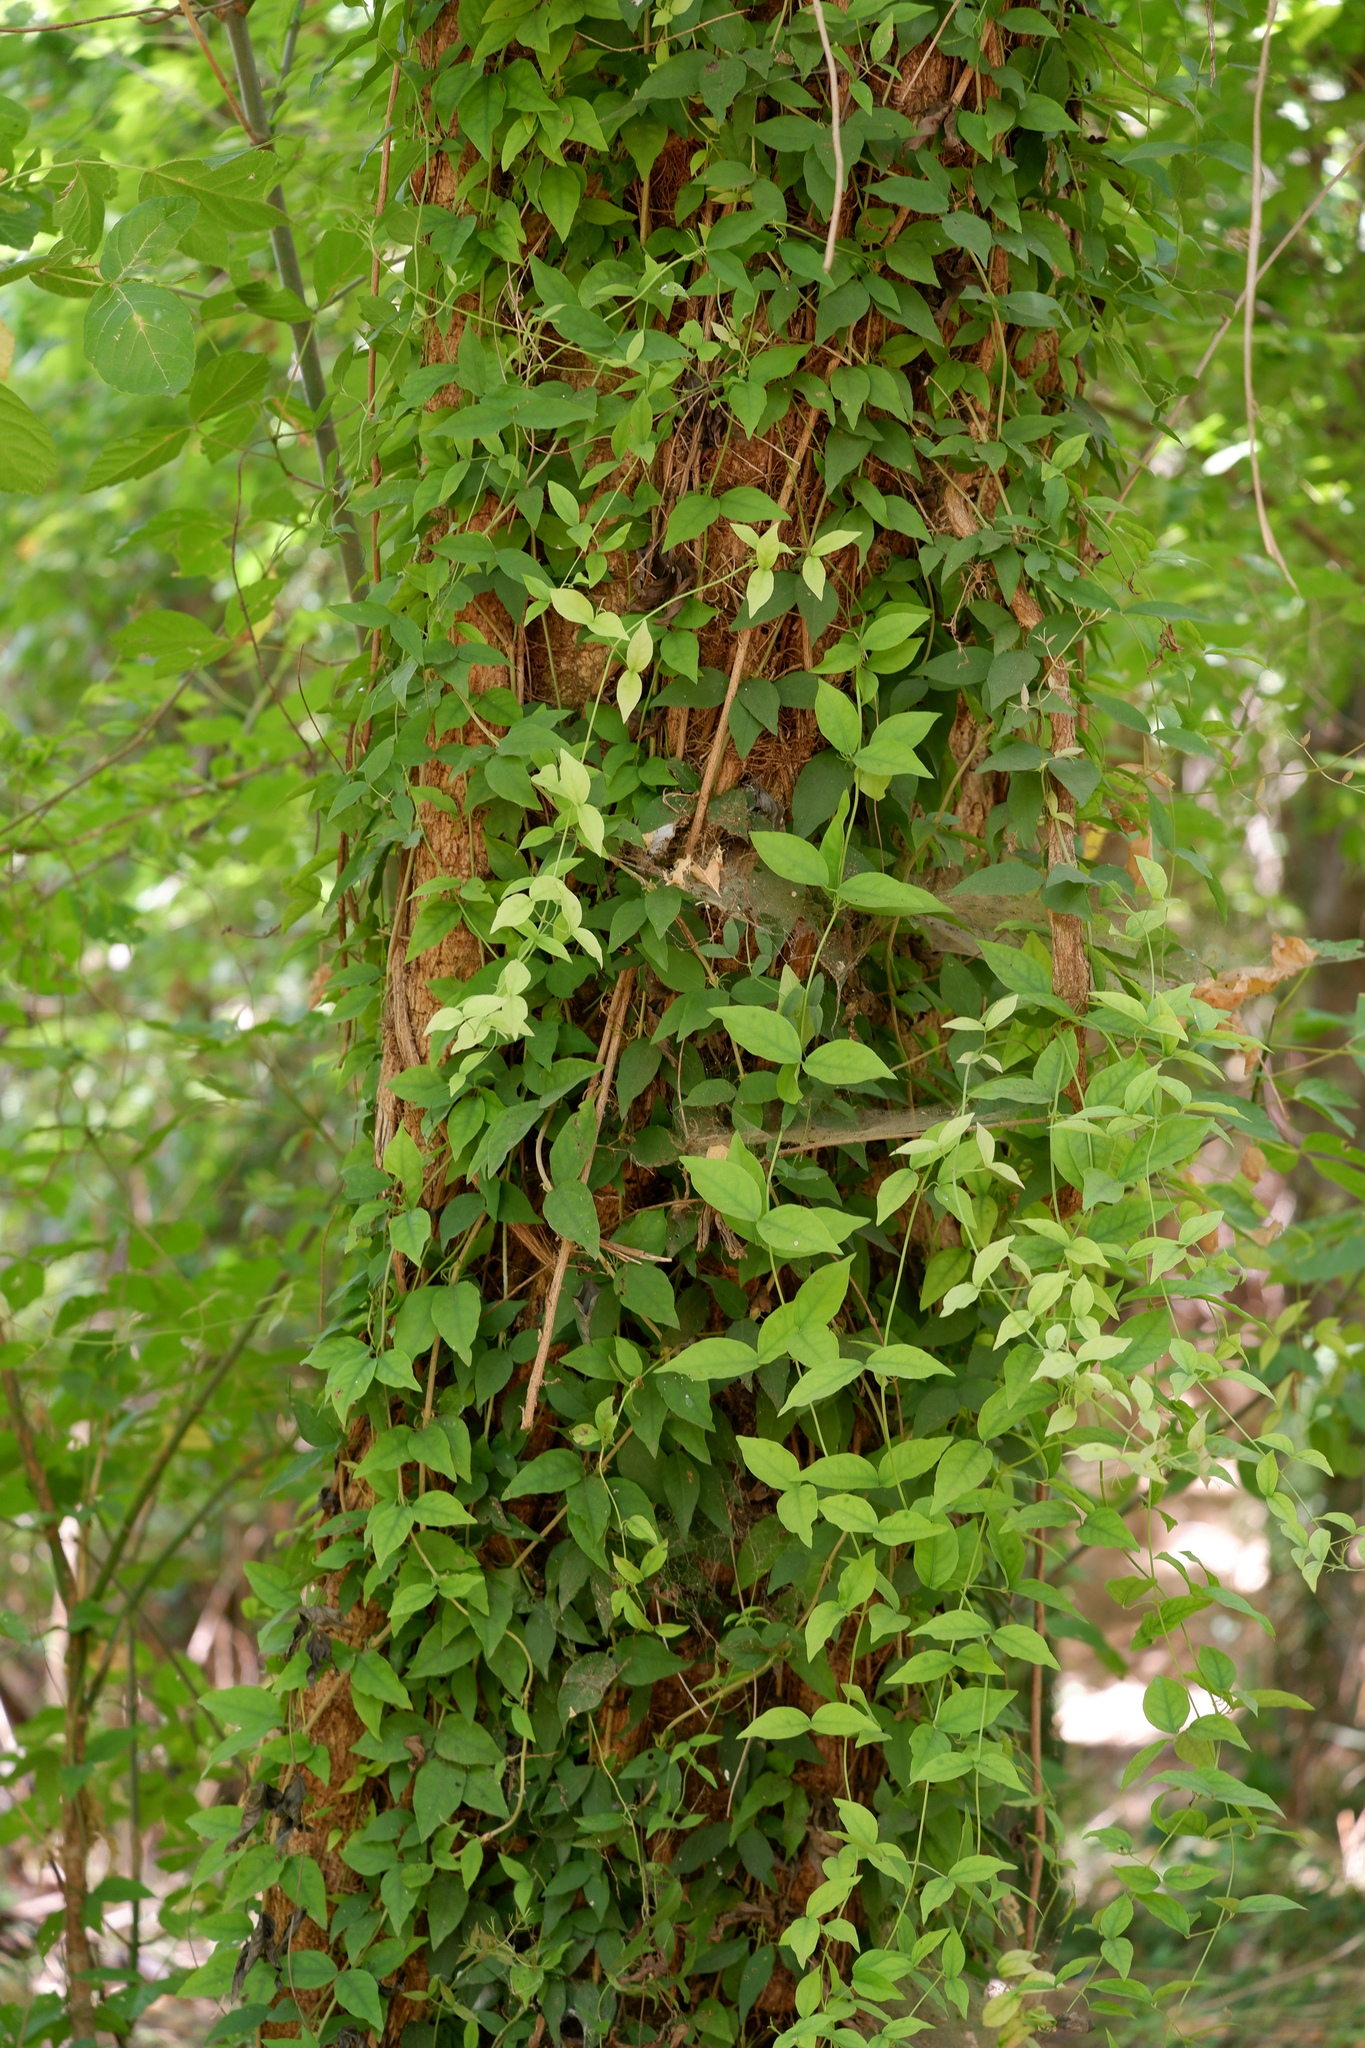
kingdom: Plantae
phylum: Tracheophyta
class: Magnoliopsida
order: Lamiales
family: Bignoniaceae
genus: Dolichandra
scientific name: Dolichandra unguis-cati
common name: Catclaw vine
